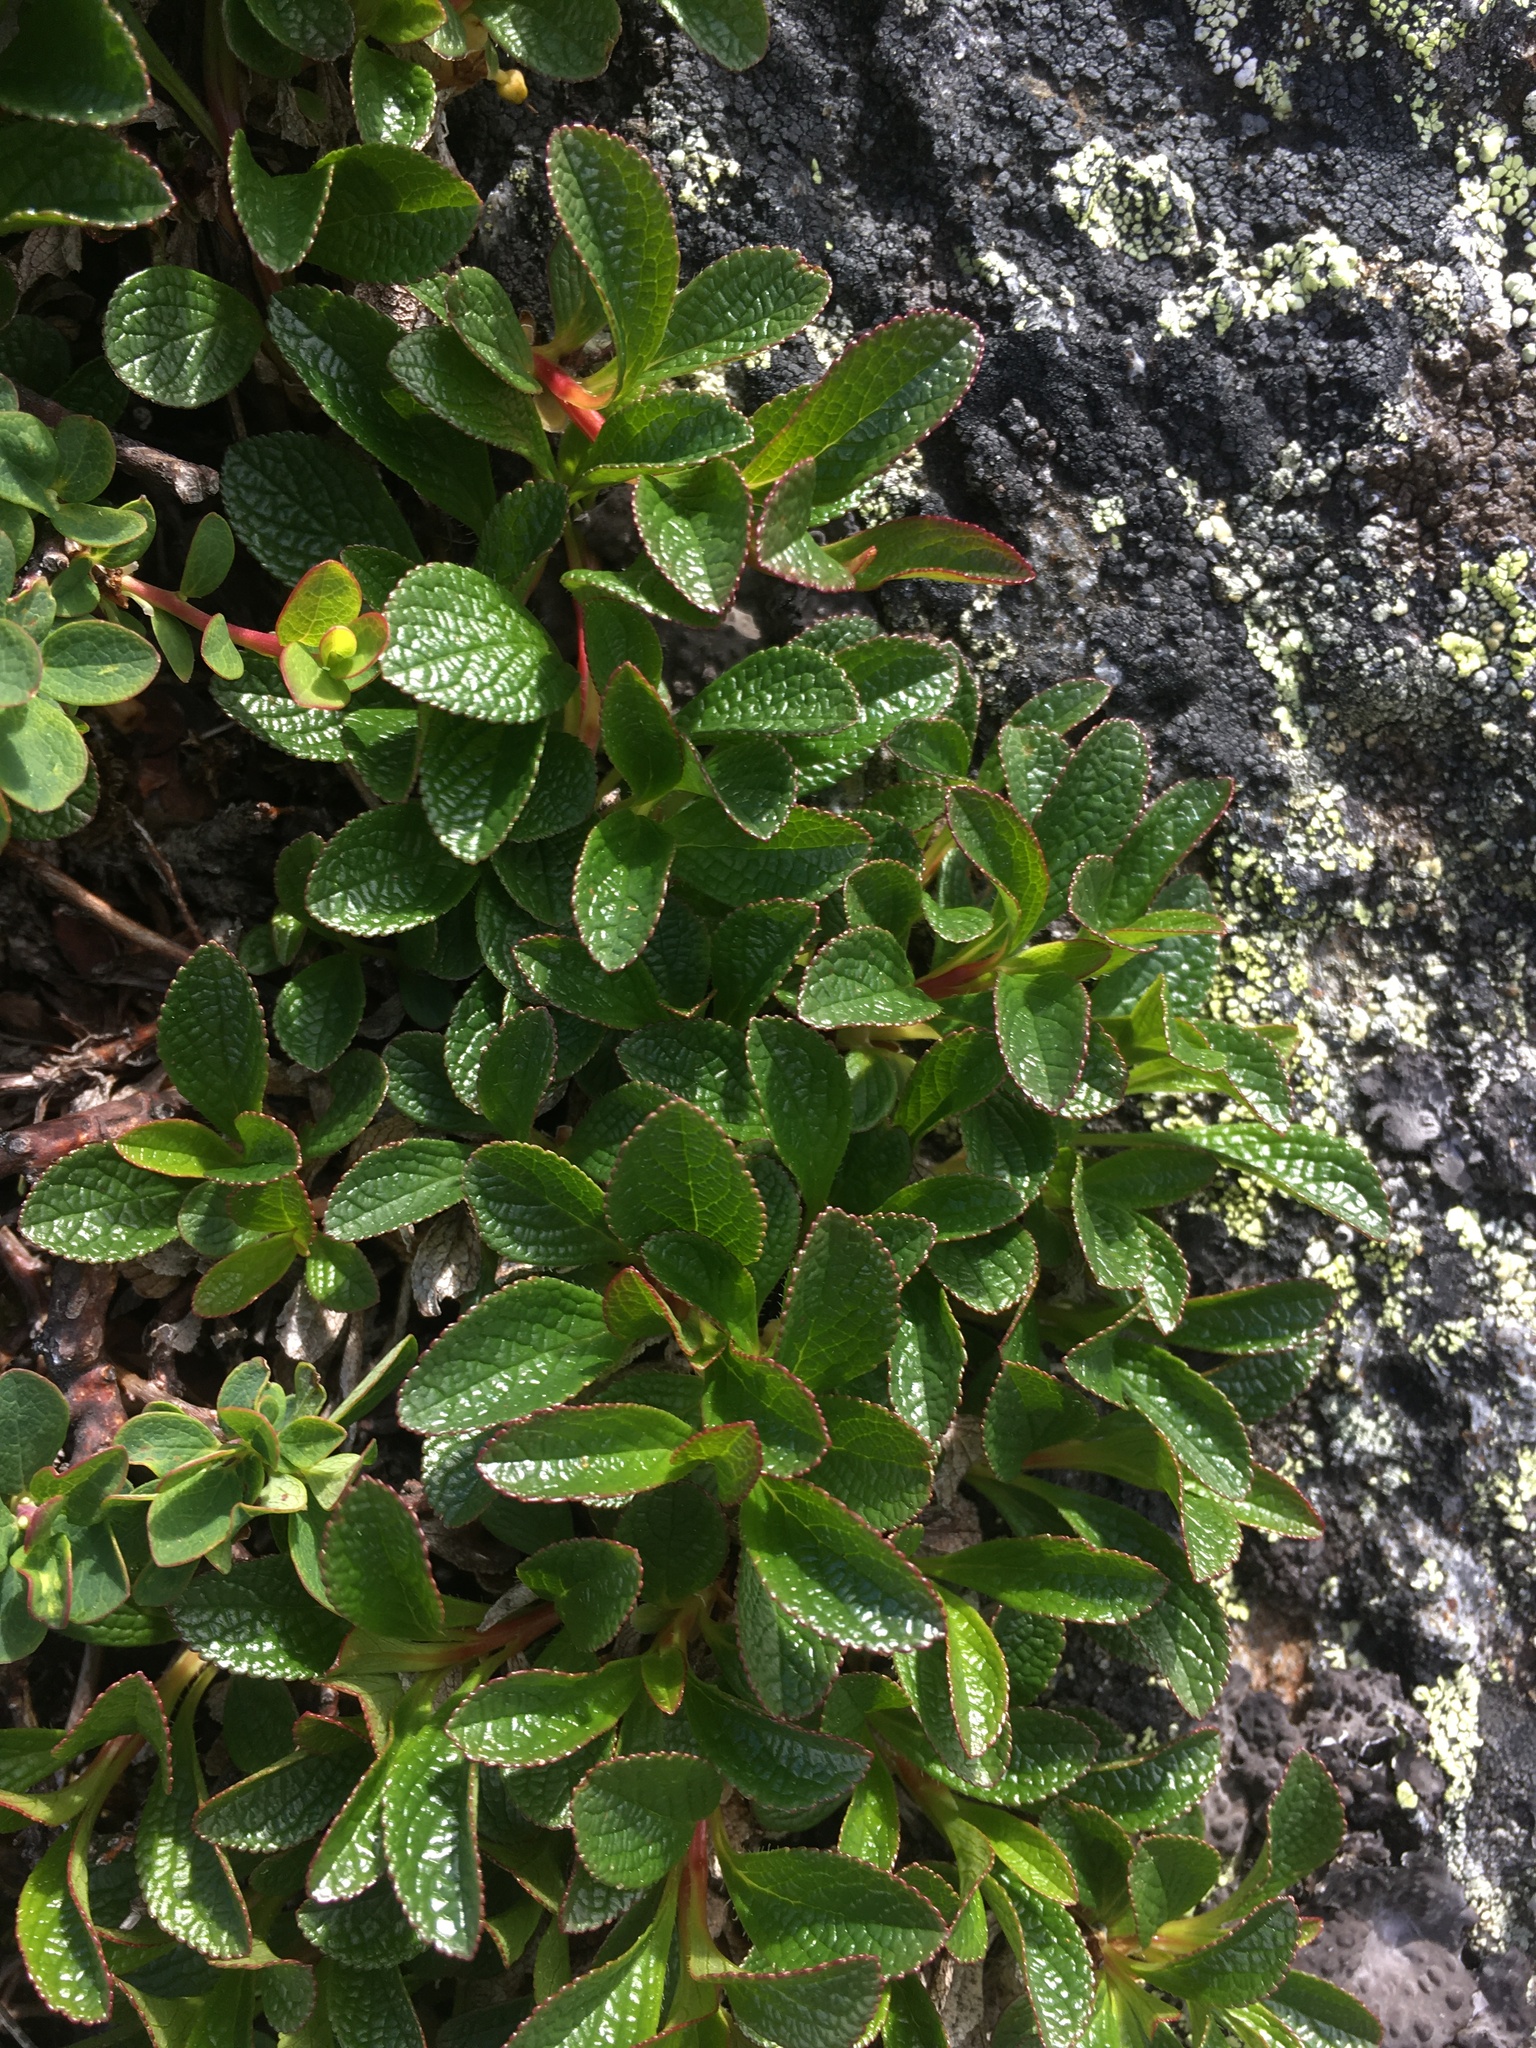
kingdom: Plantae
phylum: Tracheophyta
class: Magnoliopsida
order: Ericales
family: Ericaceae
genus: Arctostaphylos
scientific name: Arctostaphylos alpinus
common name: Alpine bearberry
